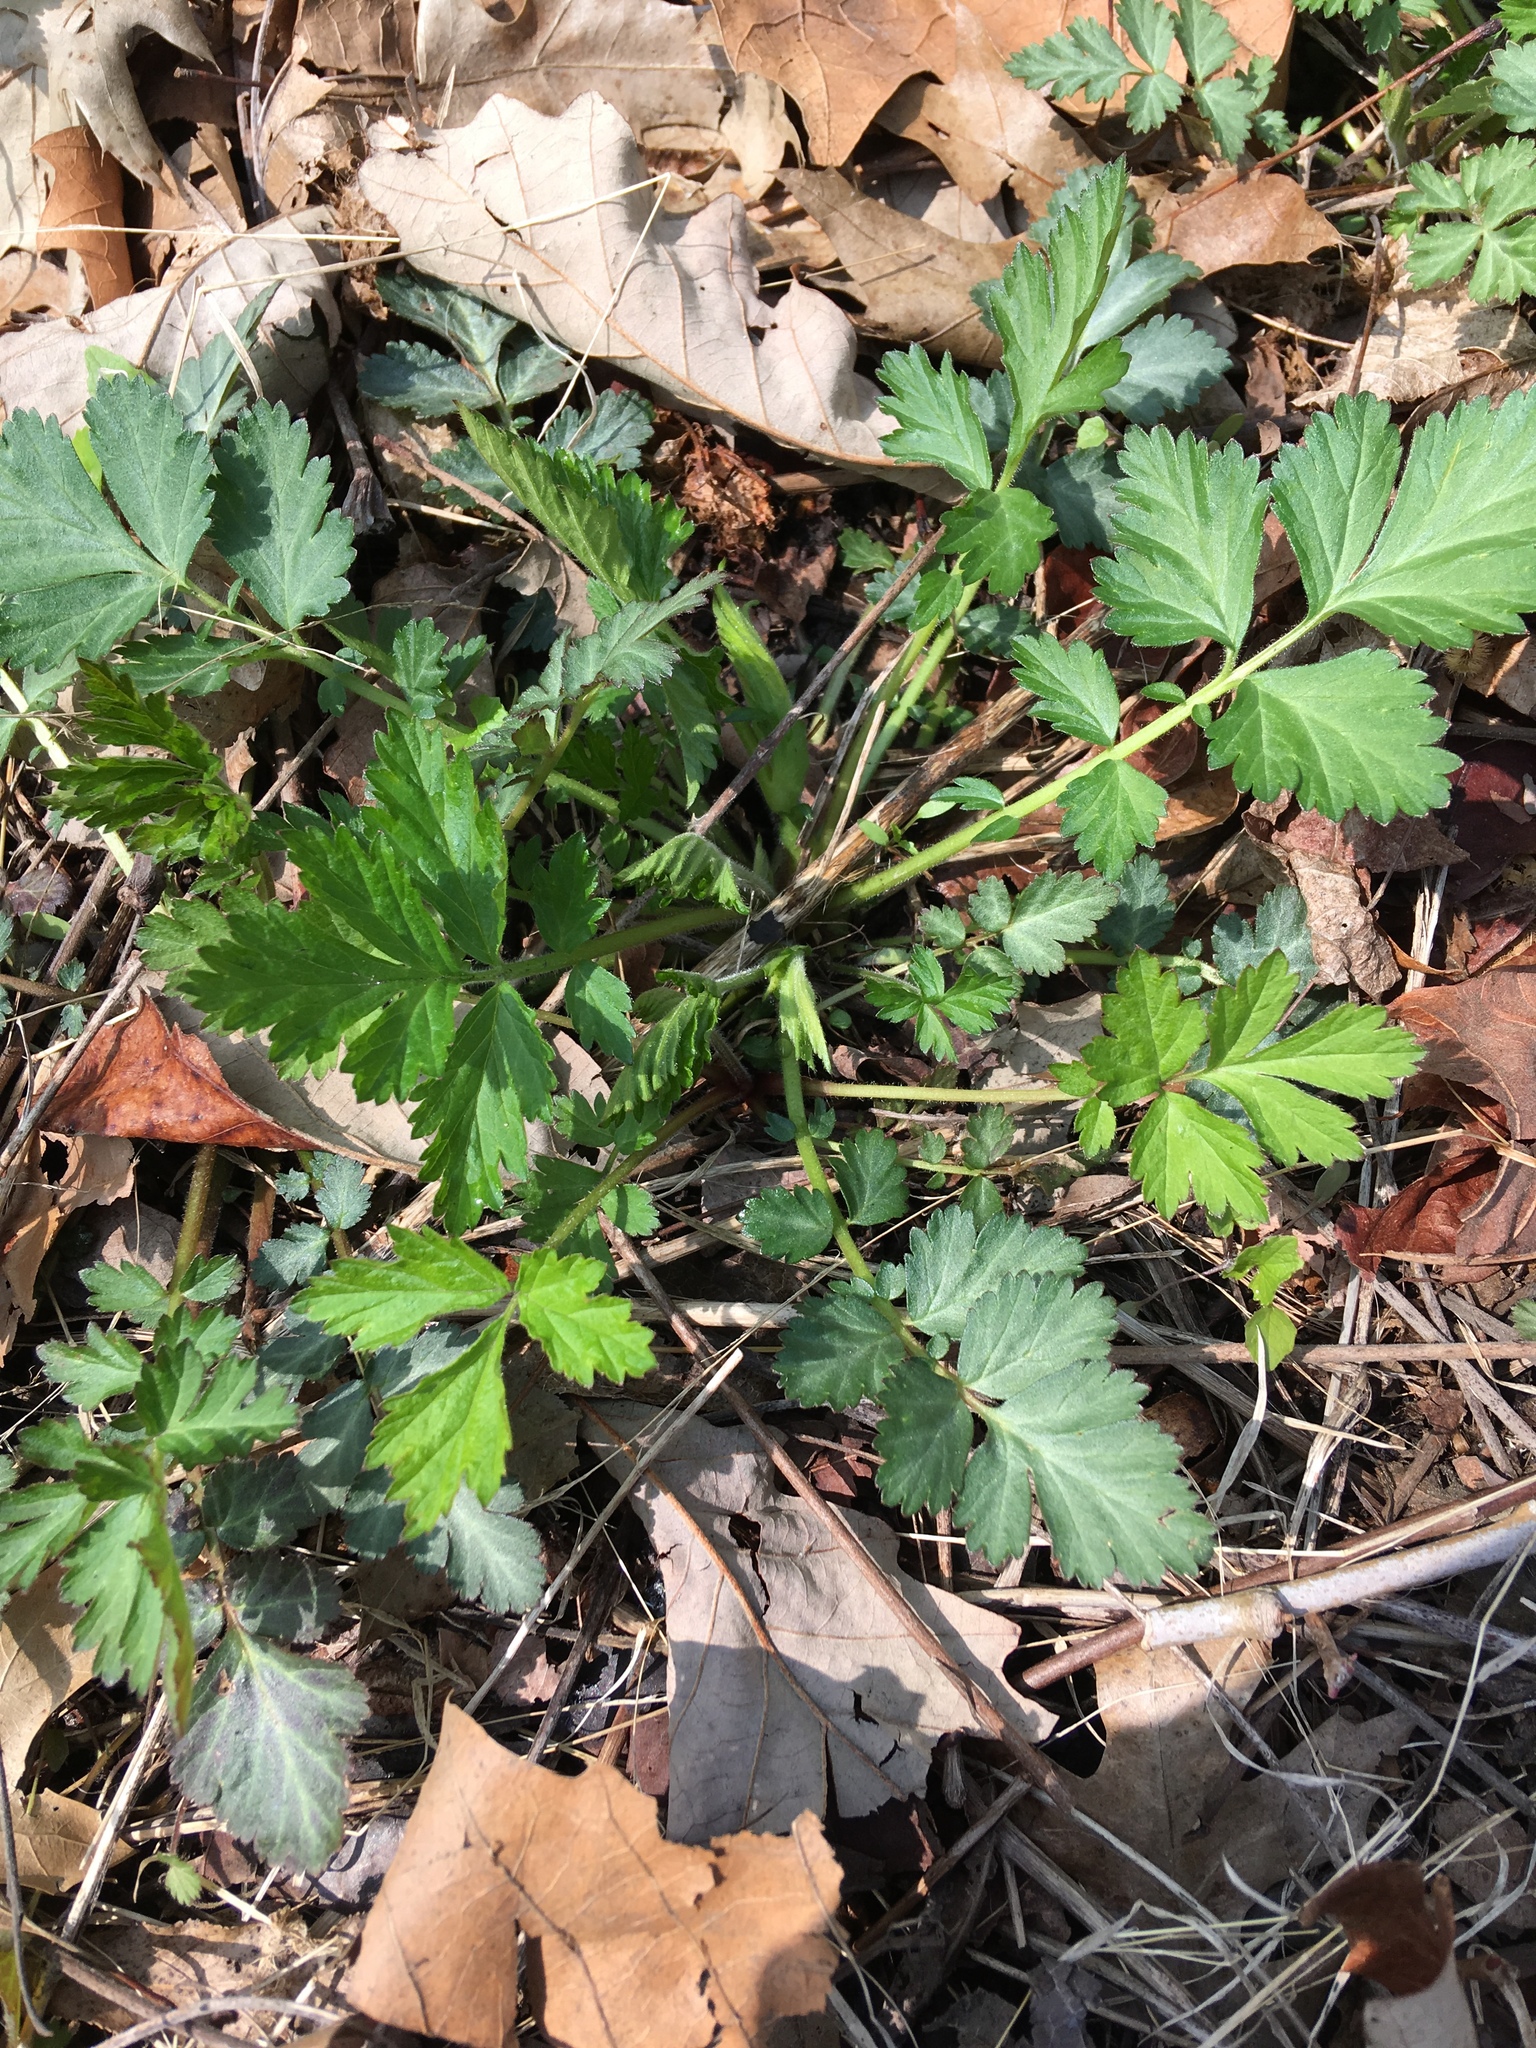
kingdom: Plantae
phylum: Tracheophyta
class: Magnoliopsida
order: Rosales
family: Rosaceae
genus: Geum
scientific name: Geum canadense
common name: White avens
